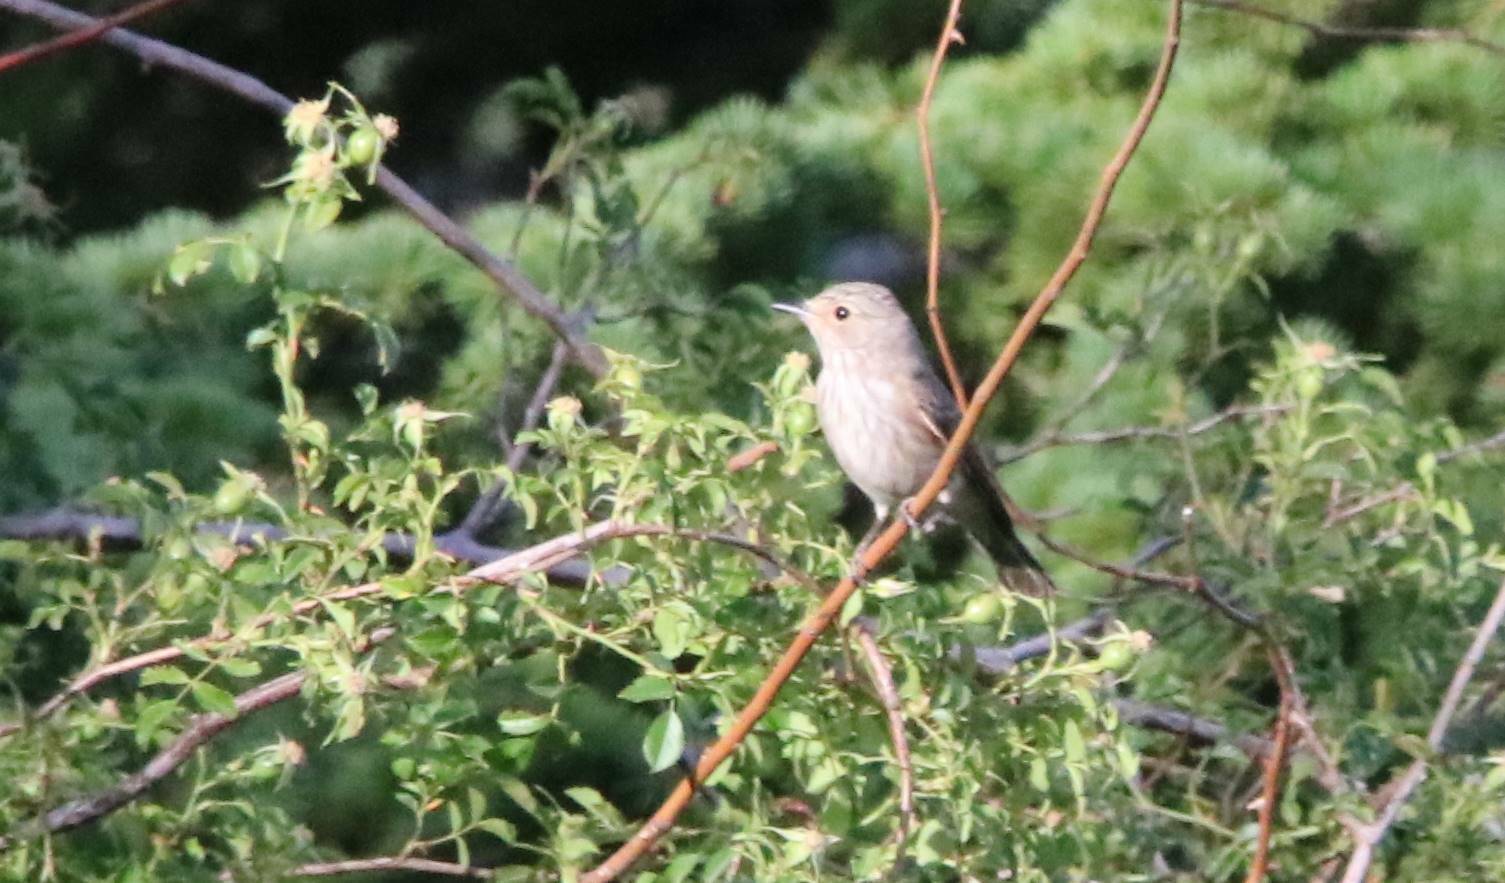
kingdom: Animalia
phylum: Chordata
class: Aves
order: Passeriformes
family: Muscicapidae
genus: Muscicapa
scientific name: Muscicapa striata
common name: Spotted flycatcher
